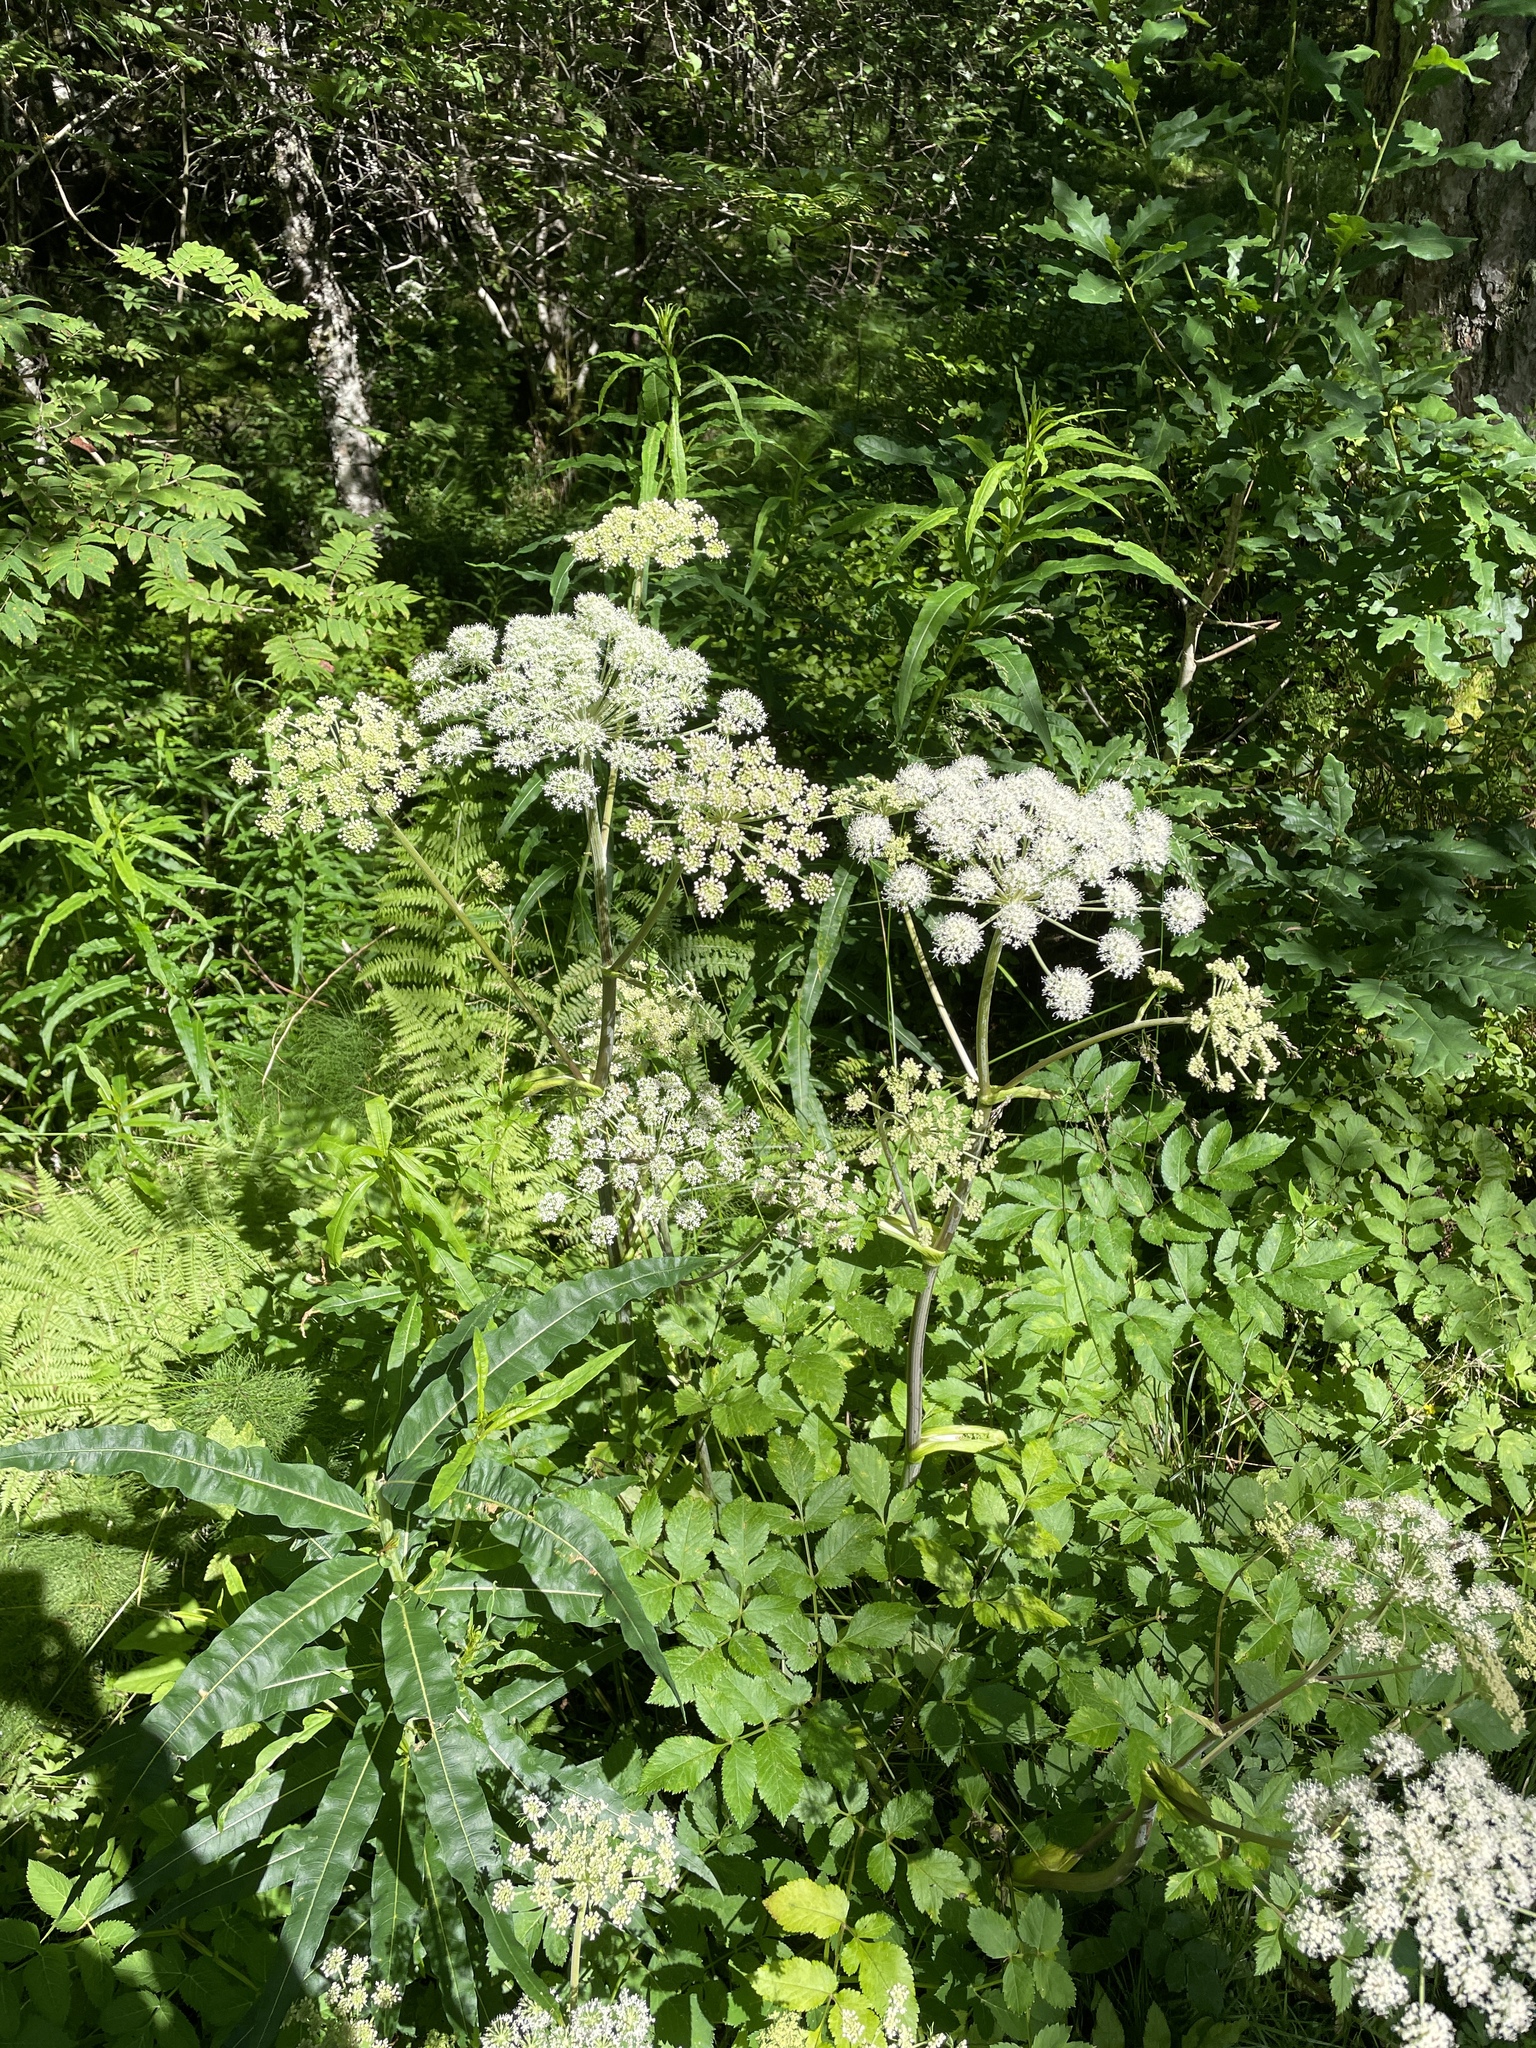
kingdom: Plantae
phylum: Tracheophyta
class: Magnoliopsida
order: Apiales
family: Apiaceae
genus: Angelica
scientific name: Angelica sylvestris
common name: Wild angelica
